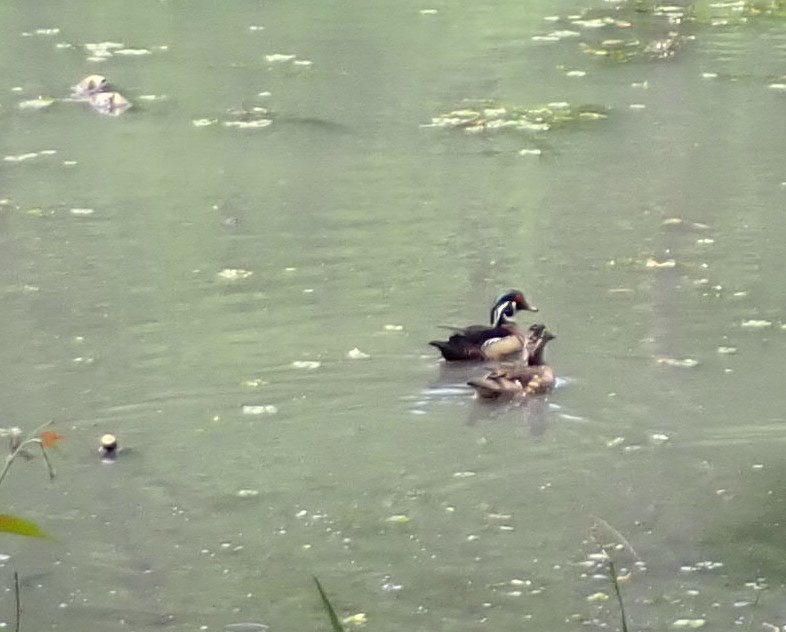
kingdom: Animalia
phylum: Chordata
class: Aves
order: Anseriformes
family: Anatidae
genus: Aix
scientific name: Aix sponsa
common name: Wood duck
